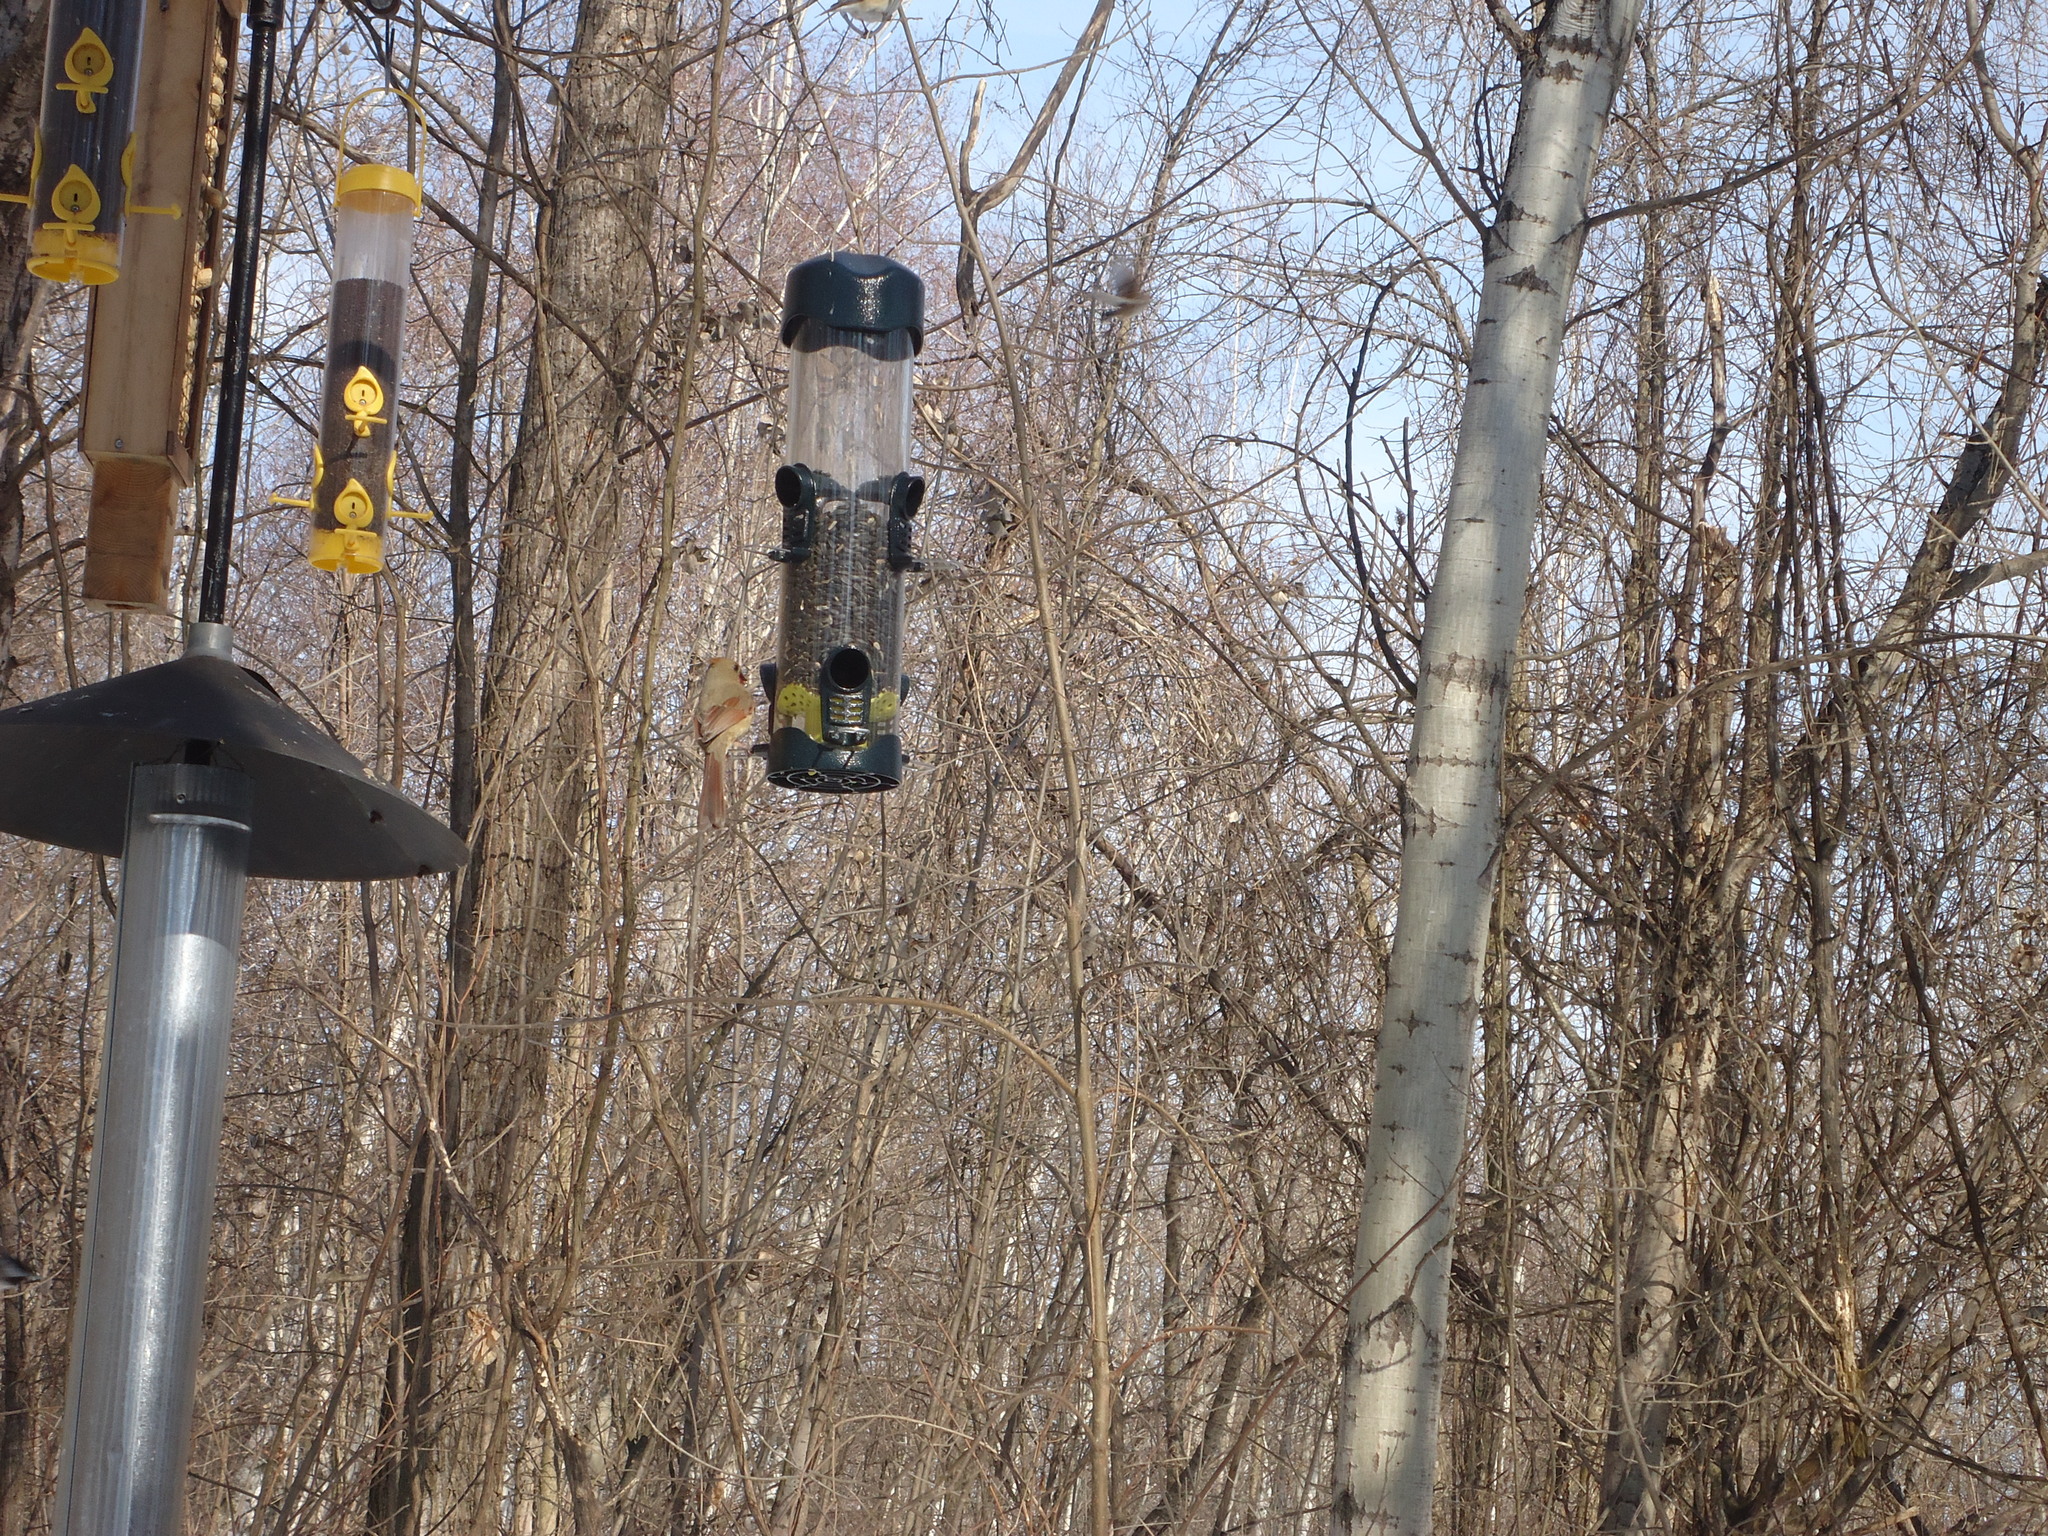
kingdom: Animalia
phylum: Chordata
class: Aves
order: Passeriformes
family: Cardinalidae
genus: Cardinalis
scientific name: Cardinalis cardinalis
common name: Northern cardinal
